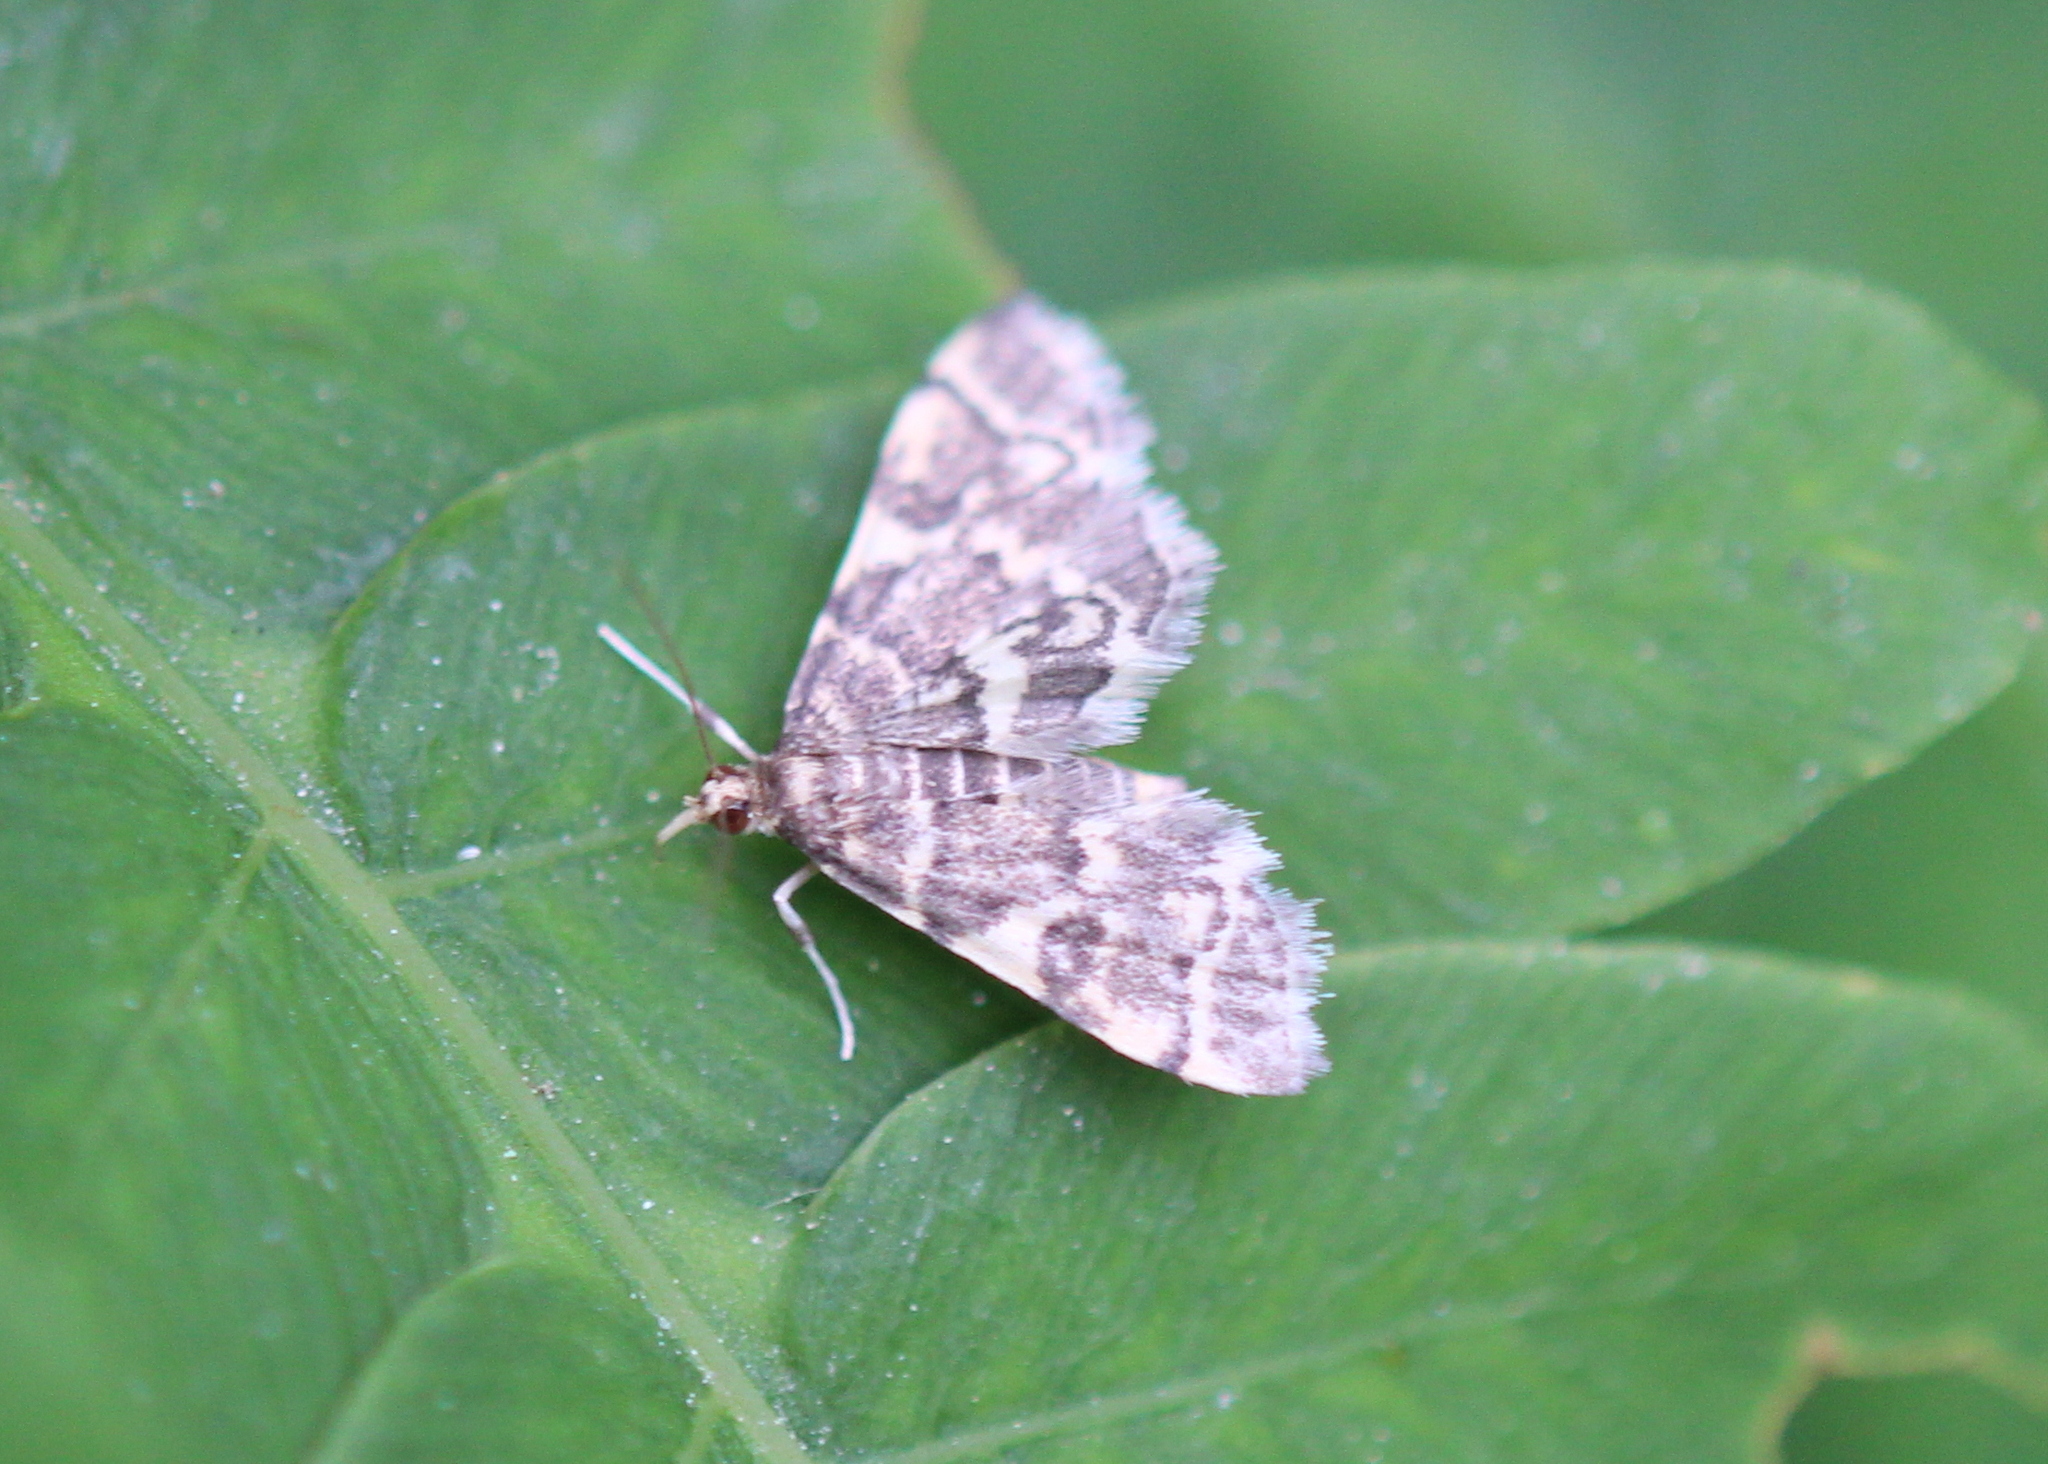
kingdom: Animalia
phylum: Arthropoda
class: Insecta
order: Lepidoptera
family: Crambidae
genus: Anageshna
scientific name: Anageshna primordialis
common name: Yellow-spotted webworm moth
